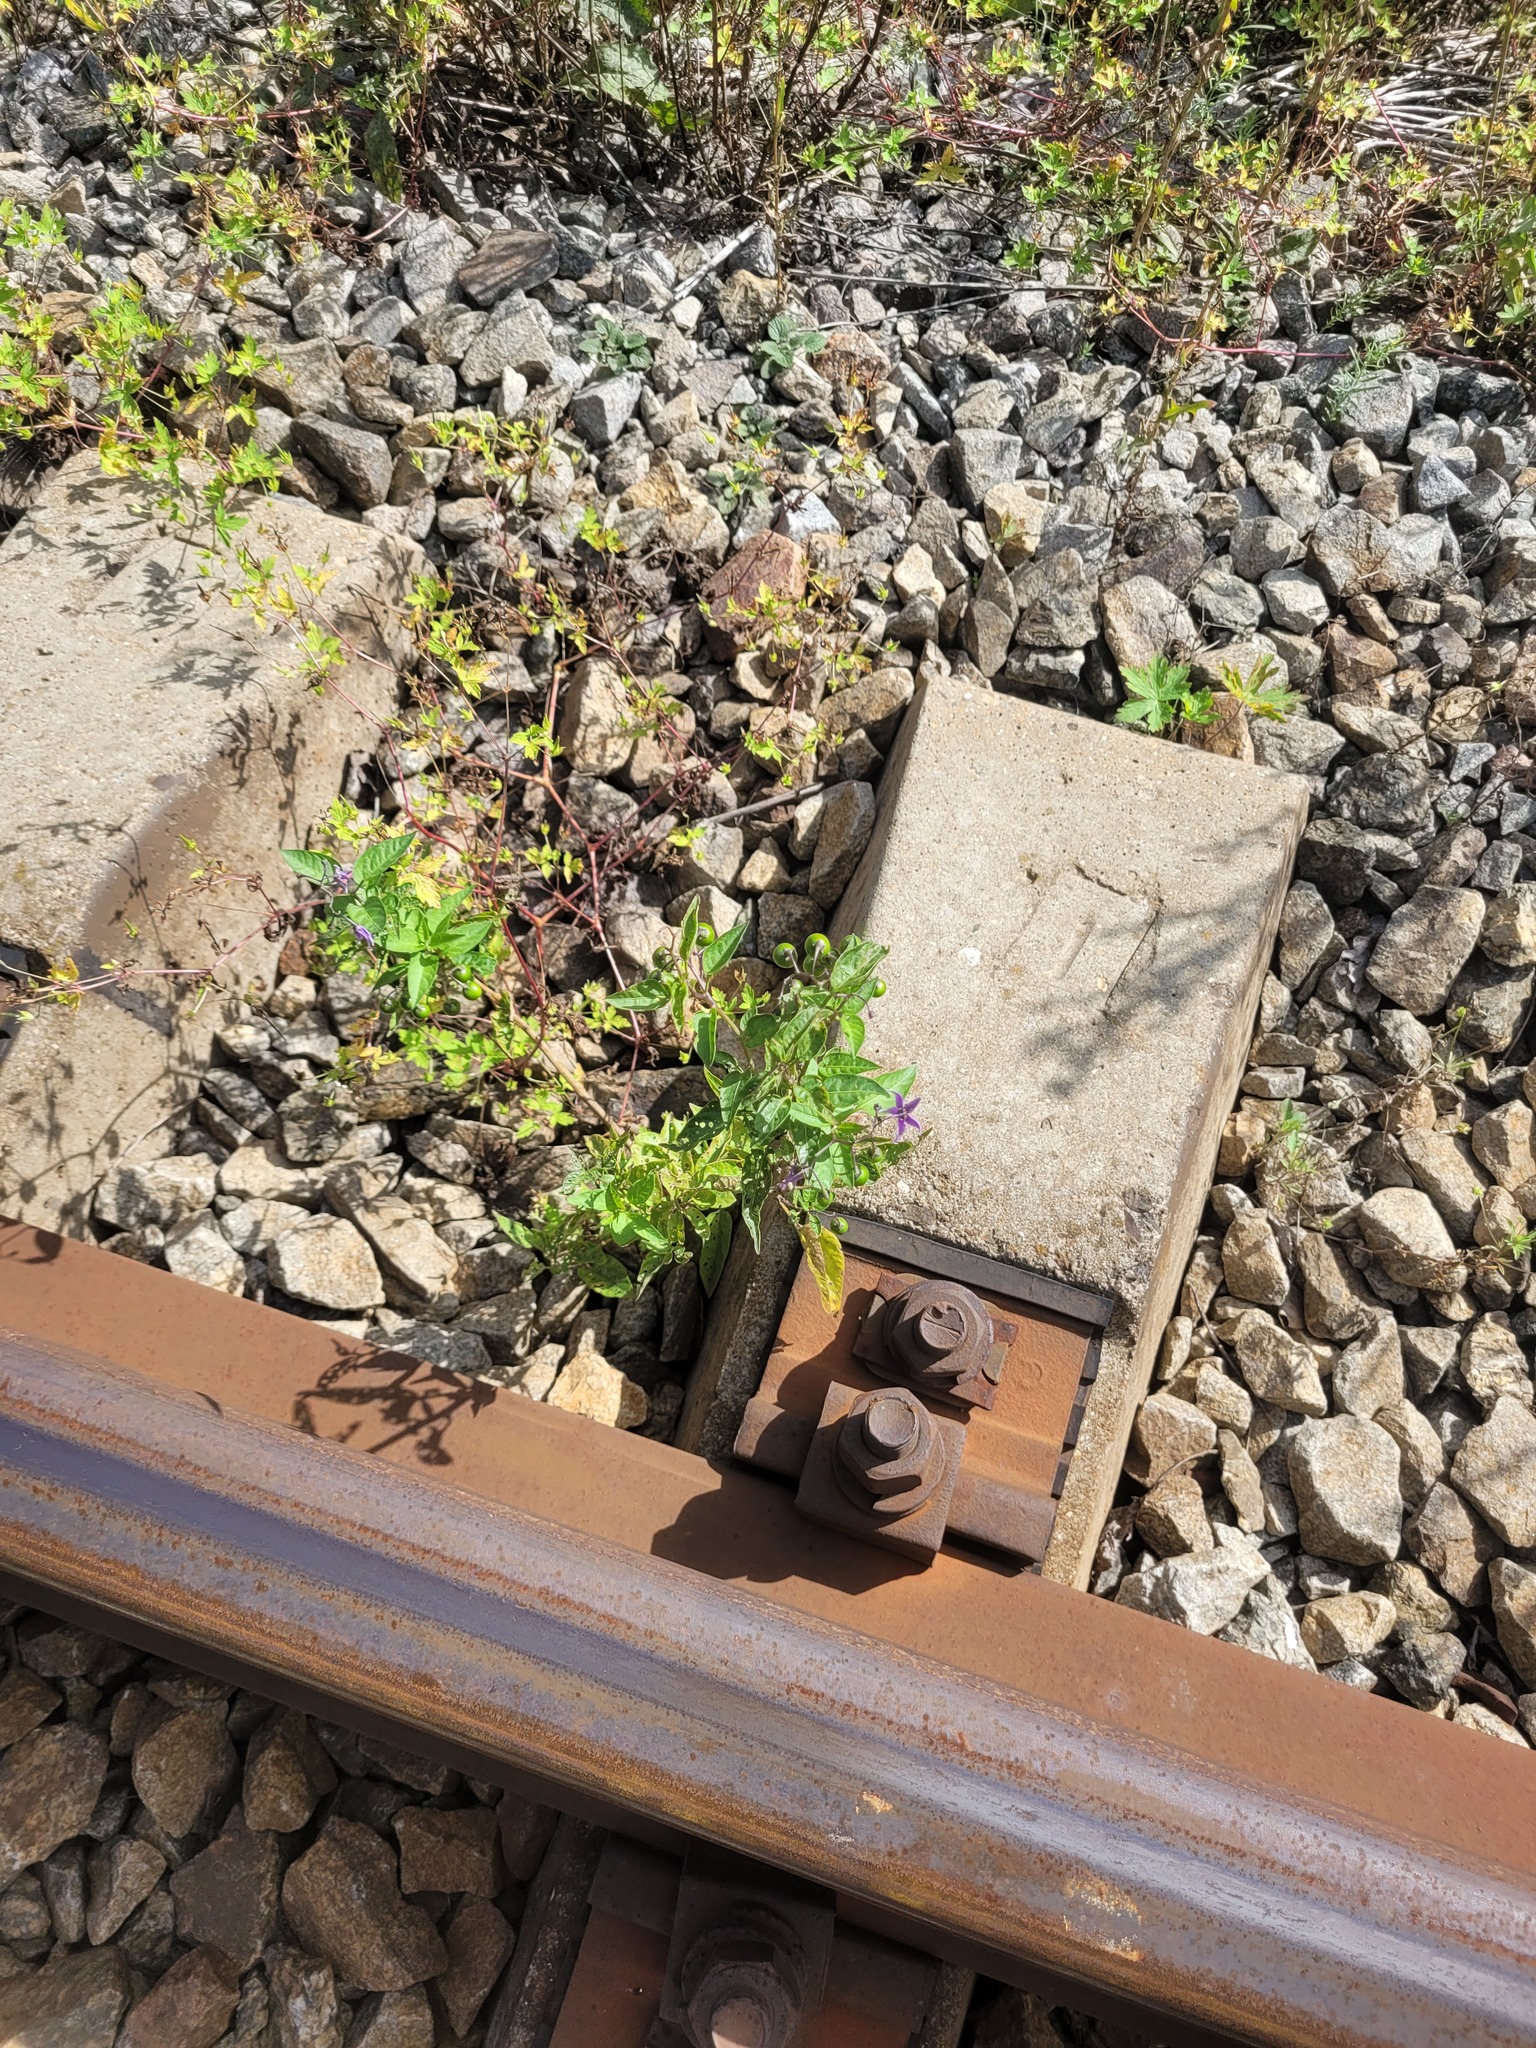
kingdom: Plantae
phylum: Tracheophyta
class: Magnoliopsida
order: Solanales
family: Solanaceae
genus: Solanum
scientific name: Solanum dulcamara
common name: Climbing nightshade
